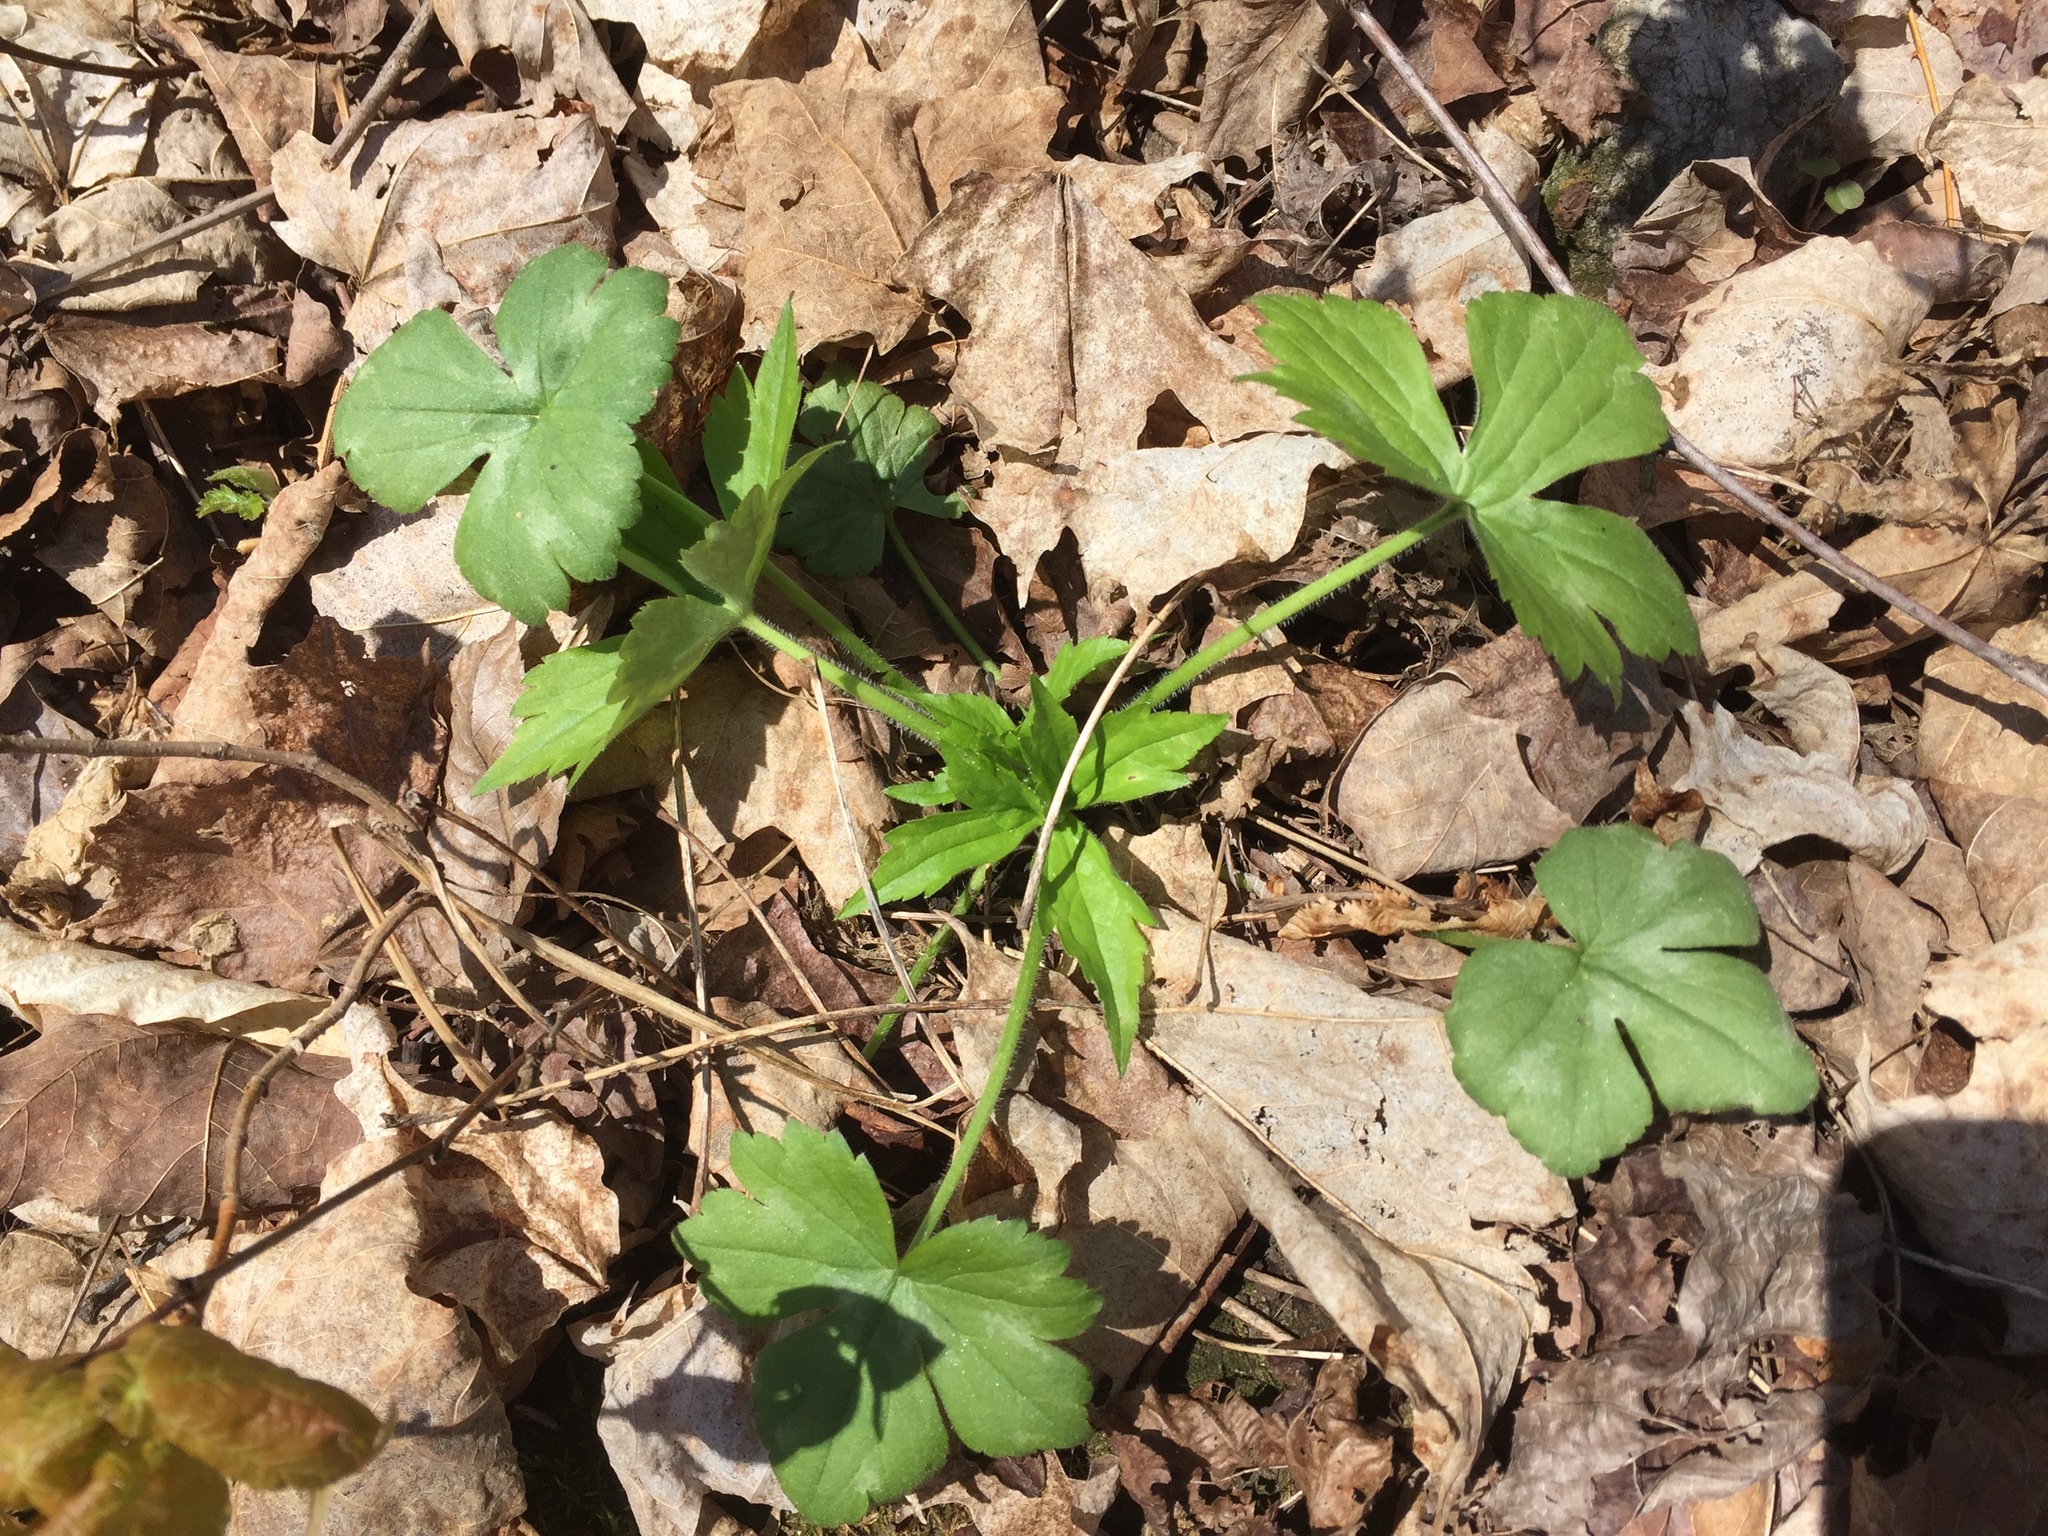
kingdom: Plantae
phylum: Tracheophyta
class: Magnoliopsida
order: Ranunculales
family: Ranunculaceae
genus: Ranunculus
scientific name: Ranunculus recurvatus
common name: Blisterwort
